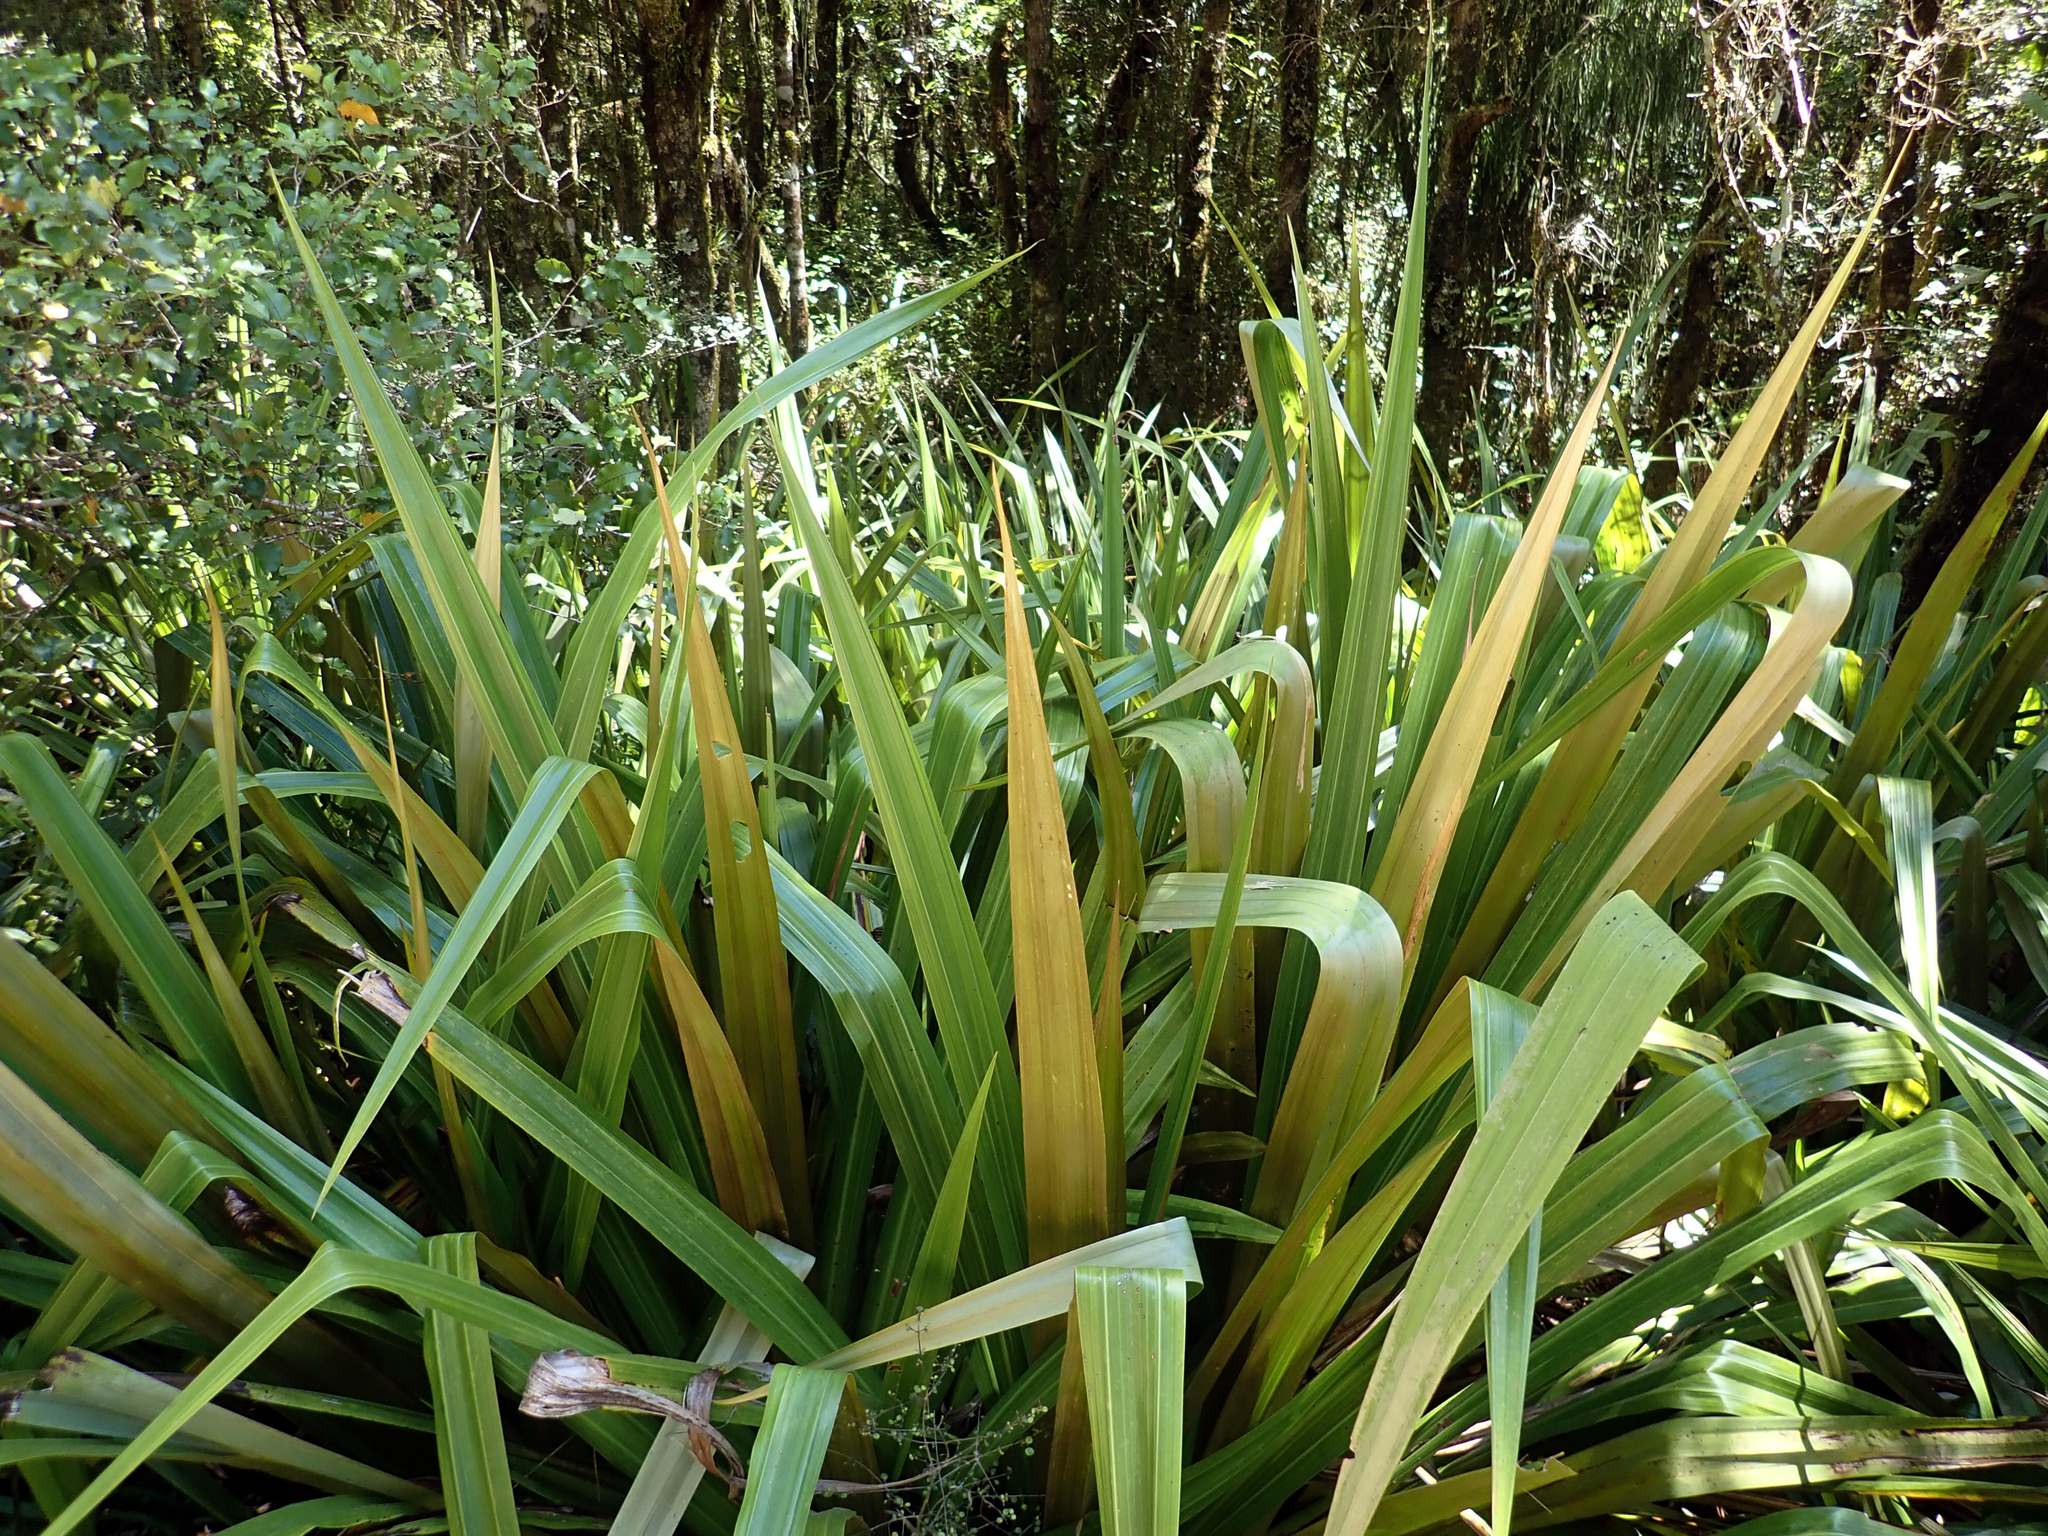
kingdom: Plantae
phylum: Tracheophyta
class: Liliopsida
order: Asparagales
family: Asteliaceae
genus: Astelia
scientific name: Astelia grandis
